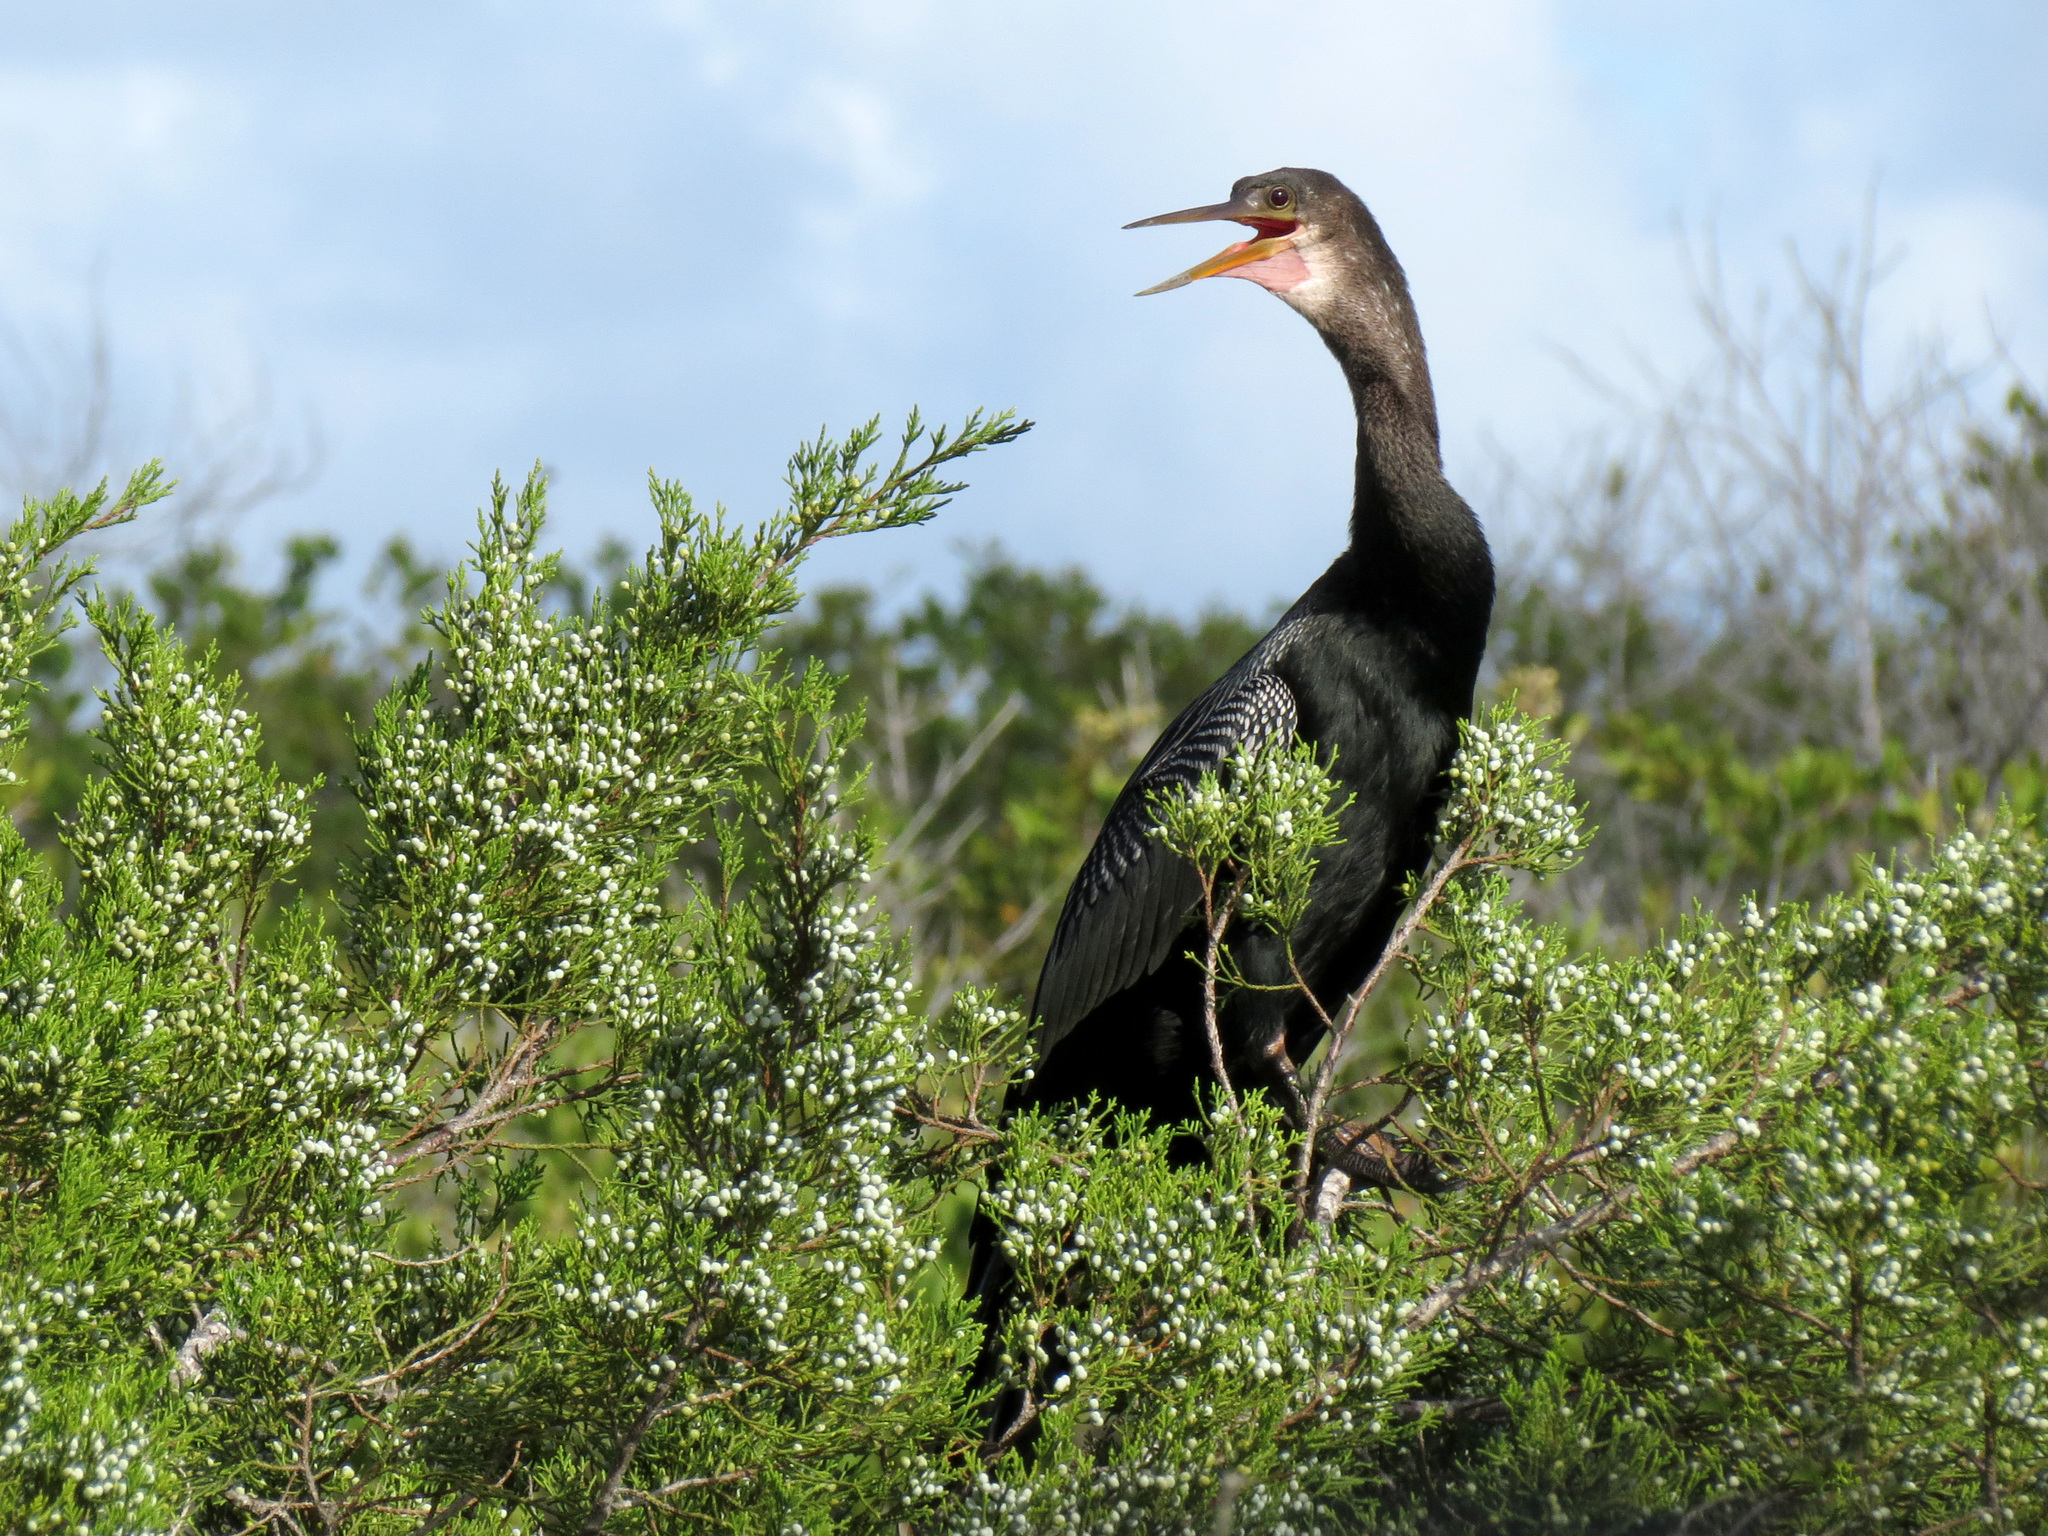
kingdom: Animalia
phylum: Chordata
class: Aves
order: Suliformes
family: Anhingidae
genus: Anhinga
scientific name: Anhinga anhinga
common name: Anhinga
